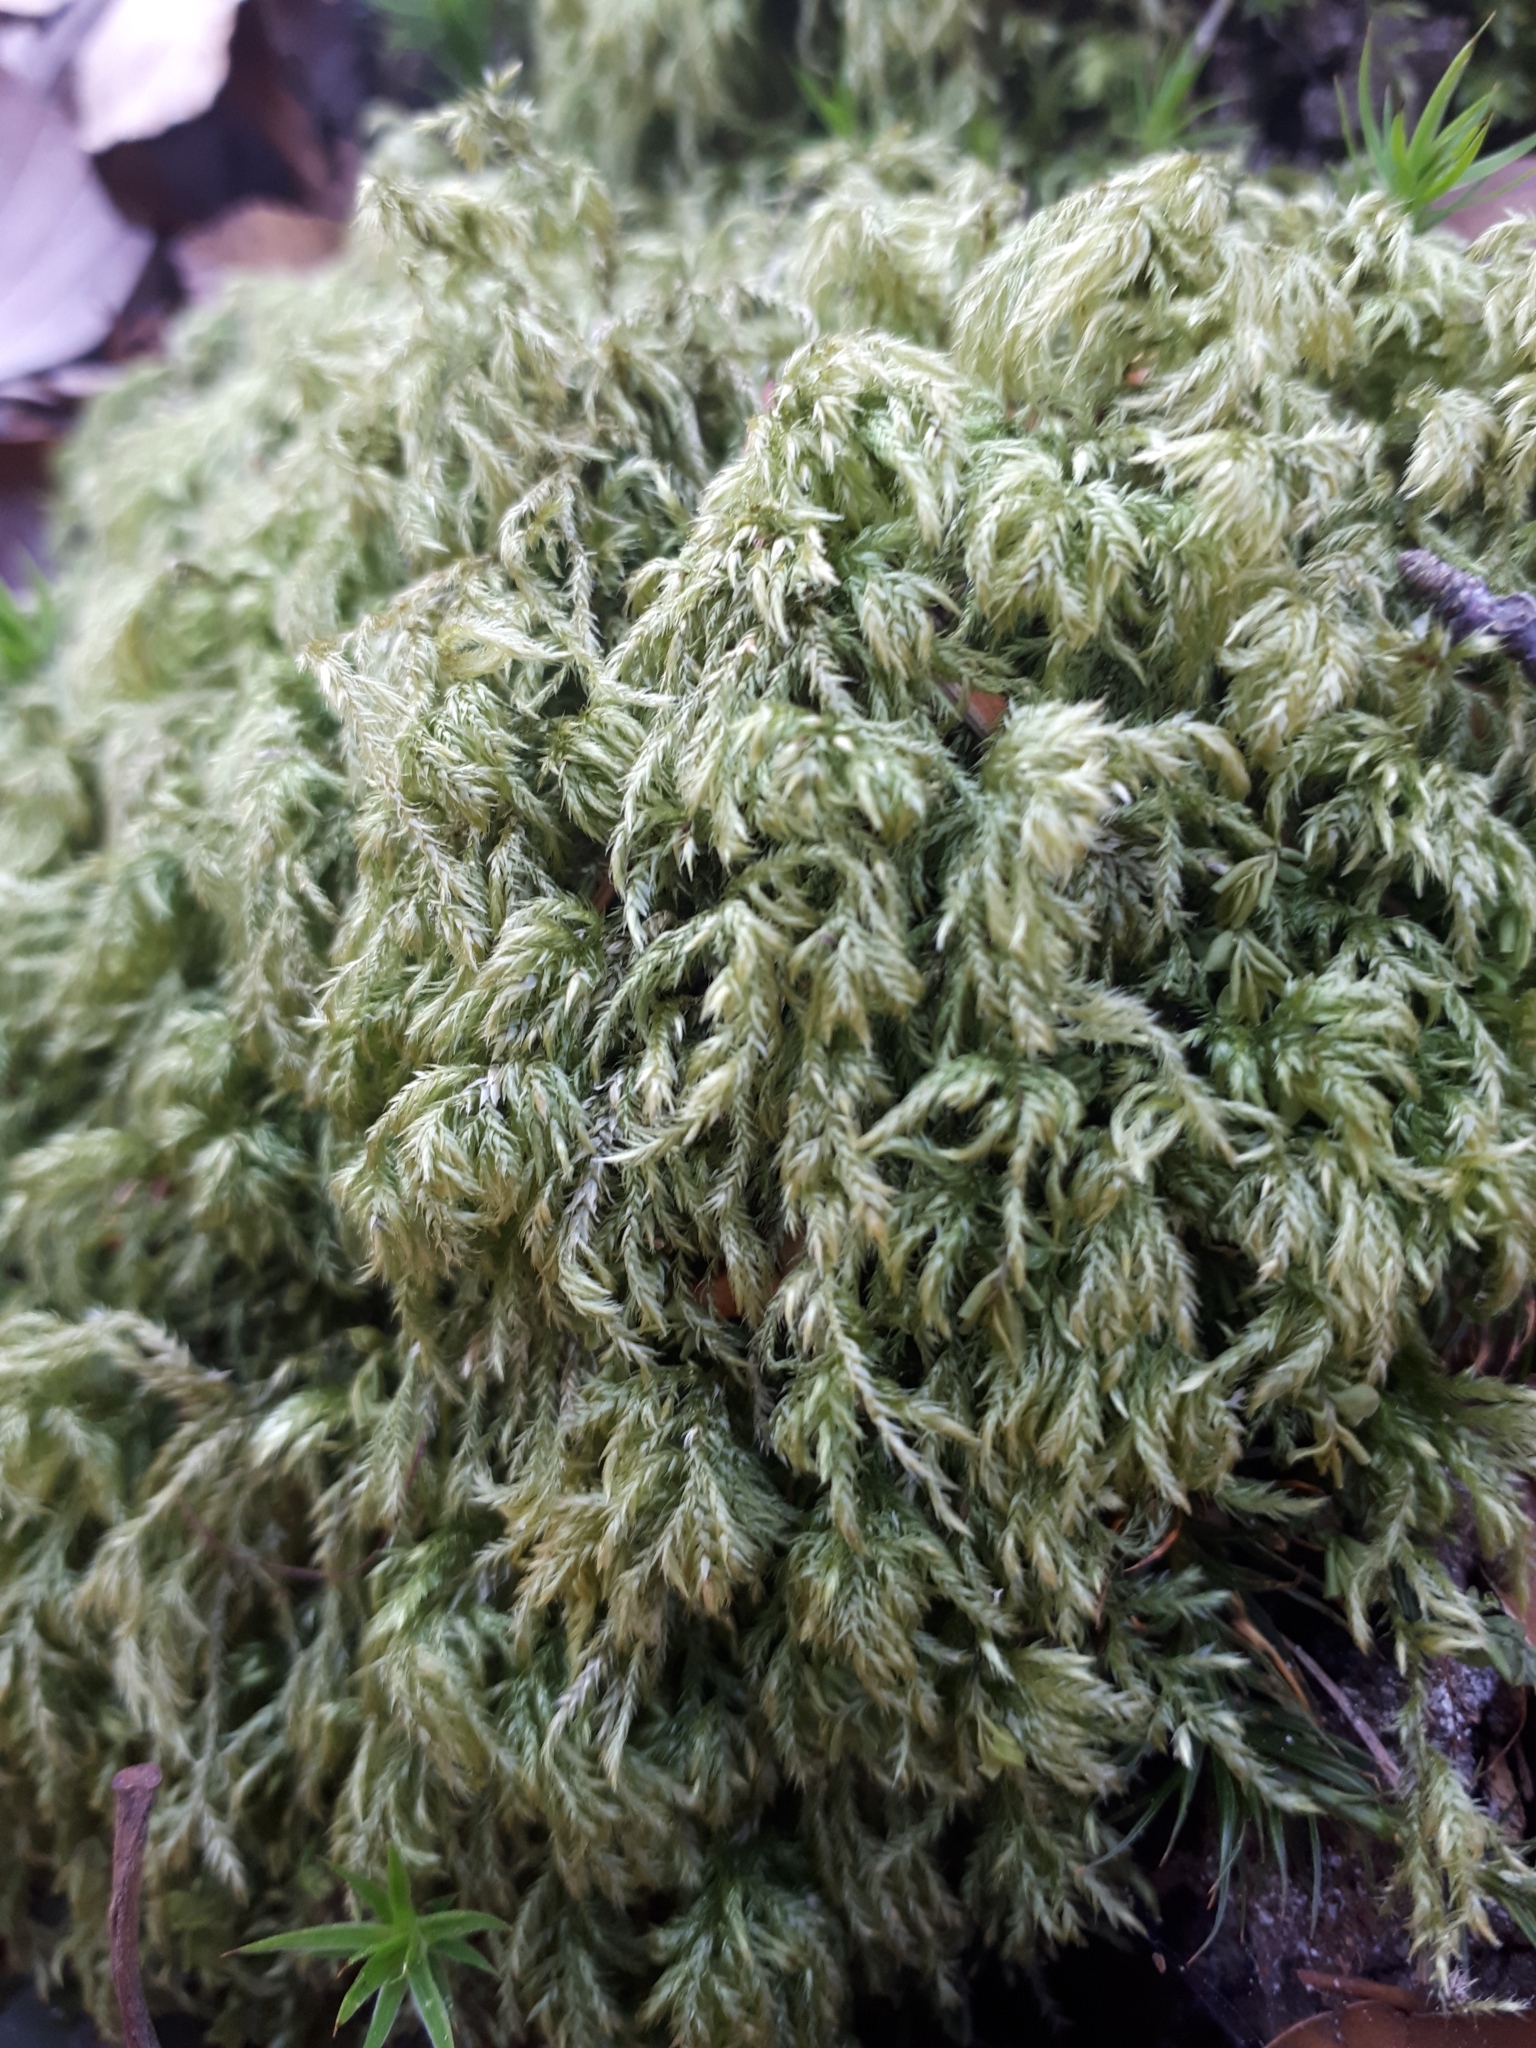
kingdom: Plantae
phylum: Bryophyta
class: Bryopsida
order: Hypnales
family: Lembophyllaceae
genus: Pseudisothecium
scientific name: Pseudisothecium myosuroides
